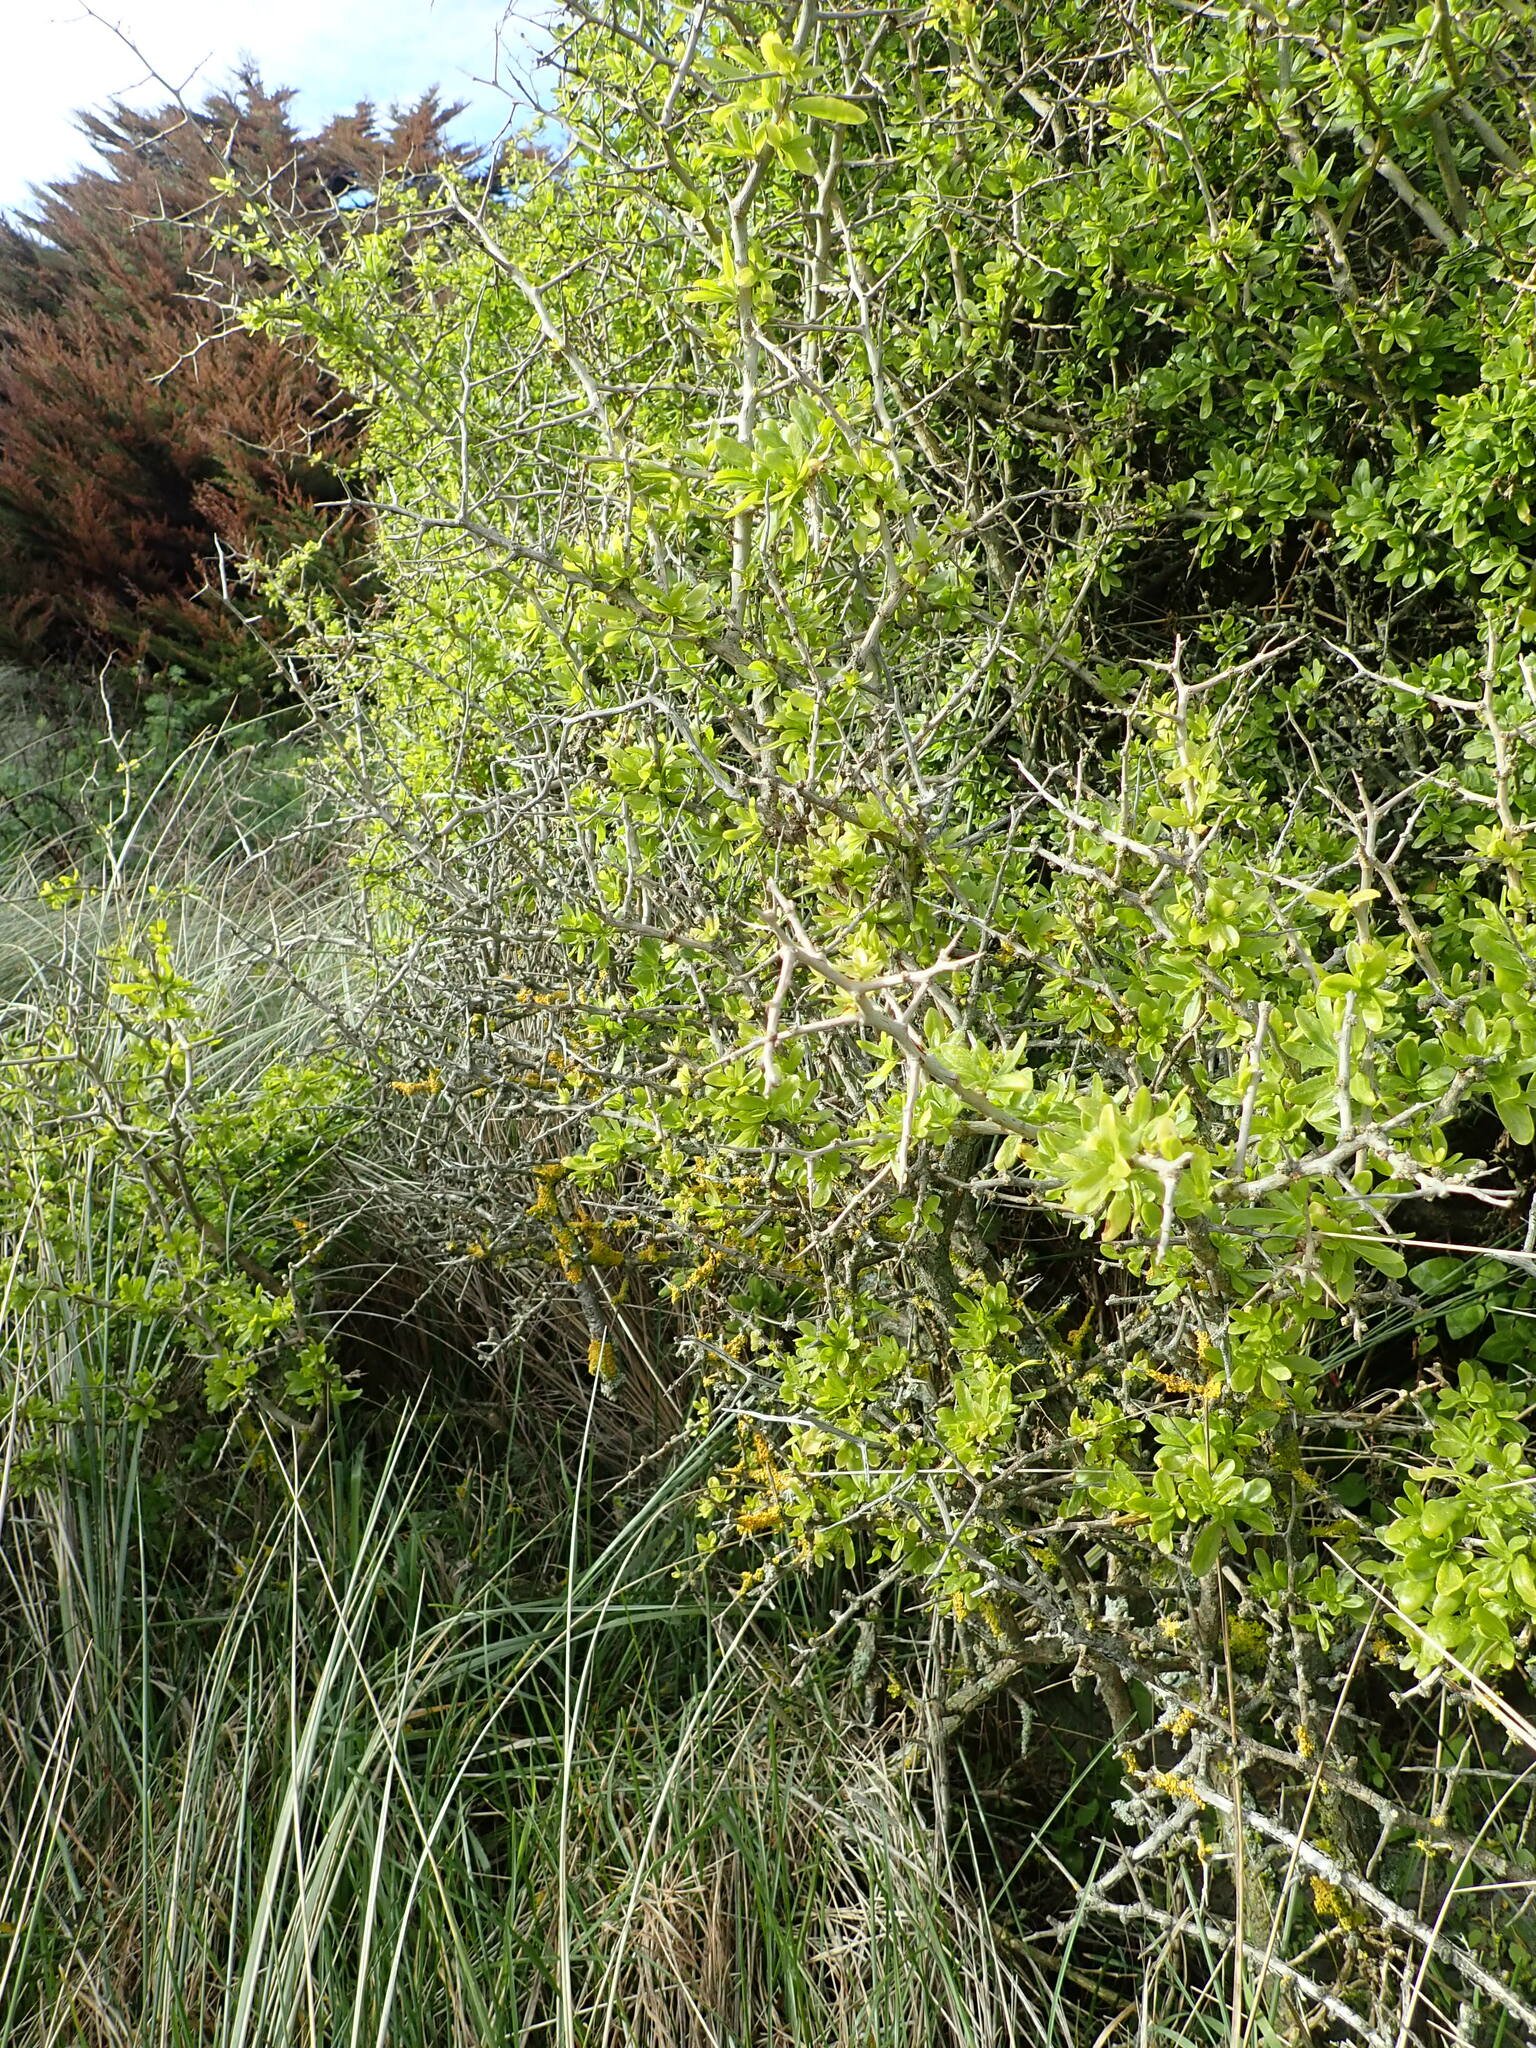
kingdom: Plantae
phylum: Tracheophyta
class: Magnoliopsida
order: Solanales
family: Solanaceae
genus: Lycium
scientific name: Lycium ferocissimum
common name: African boxthorn
